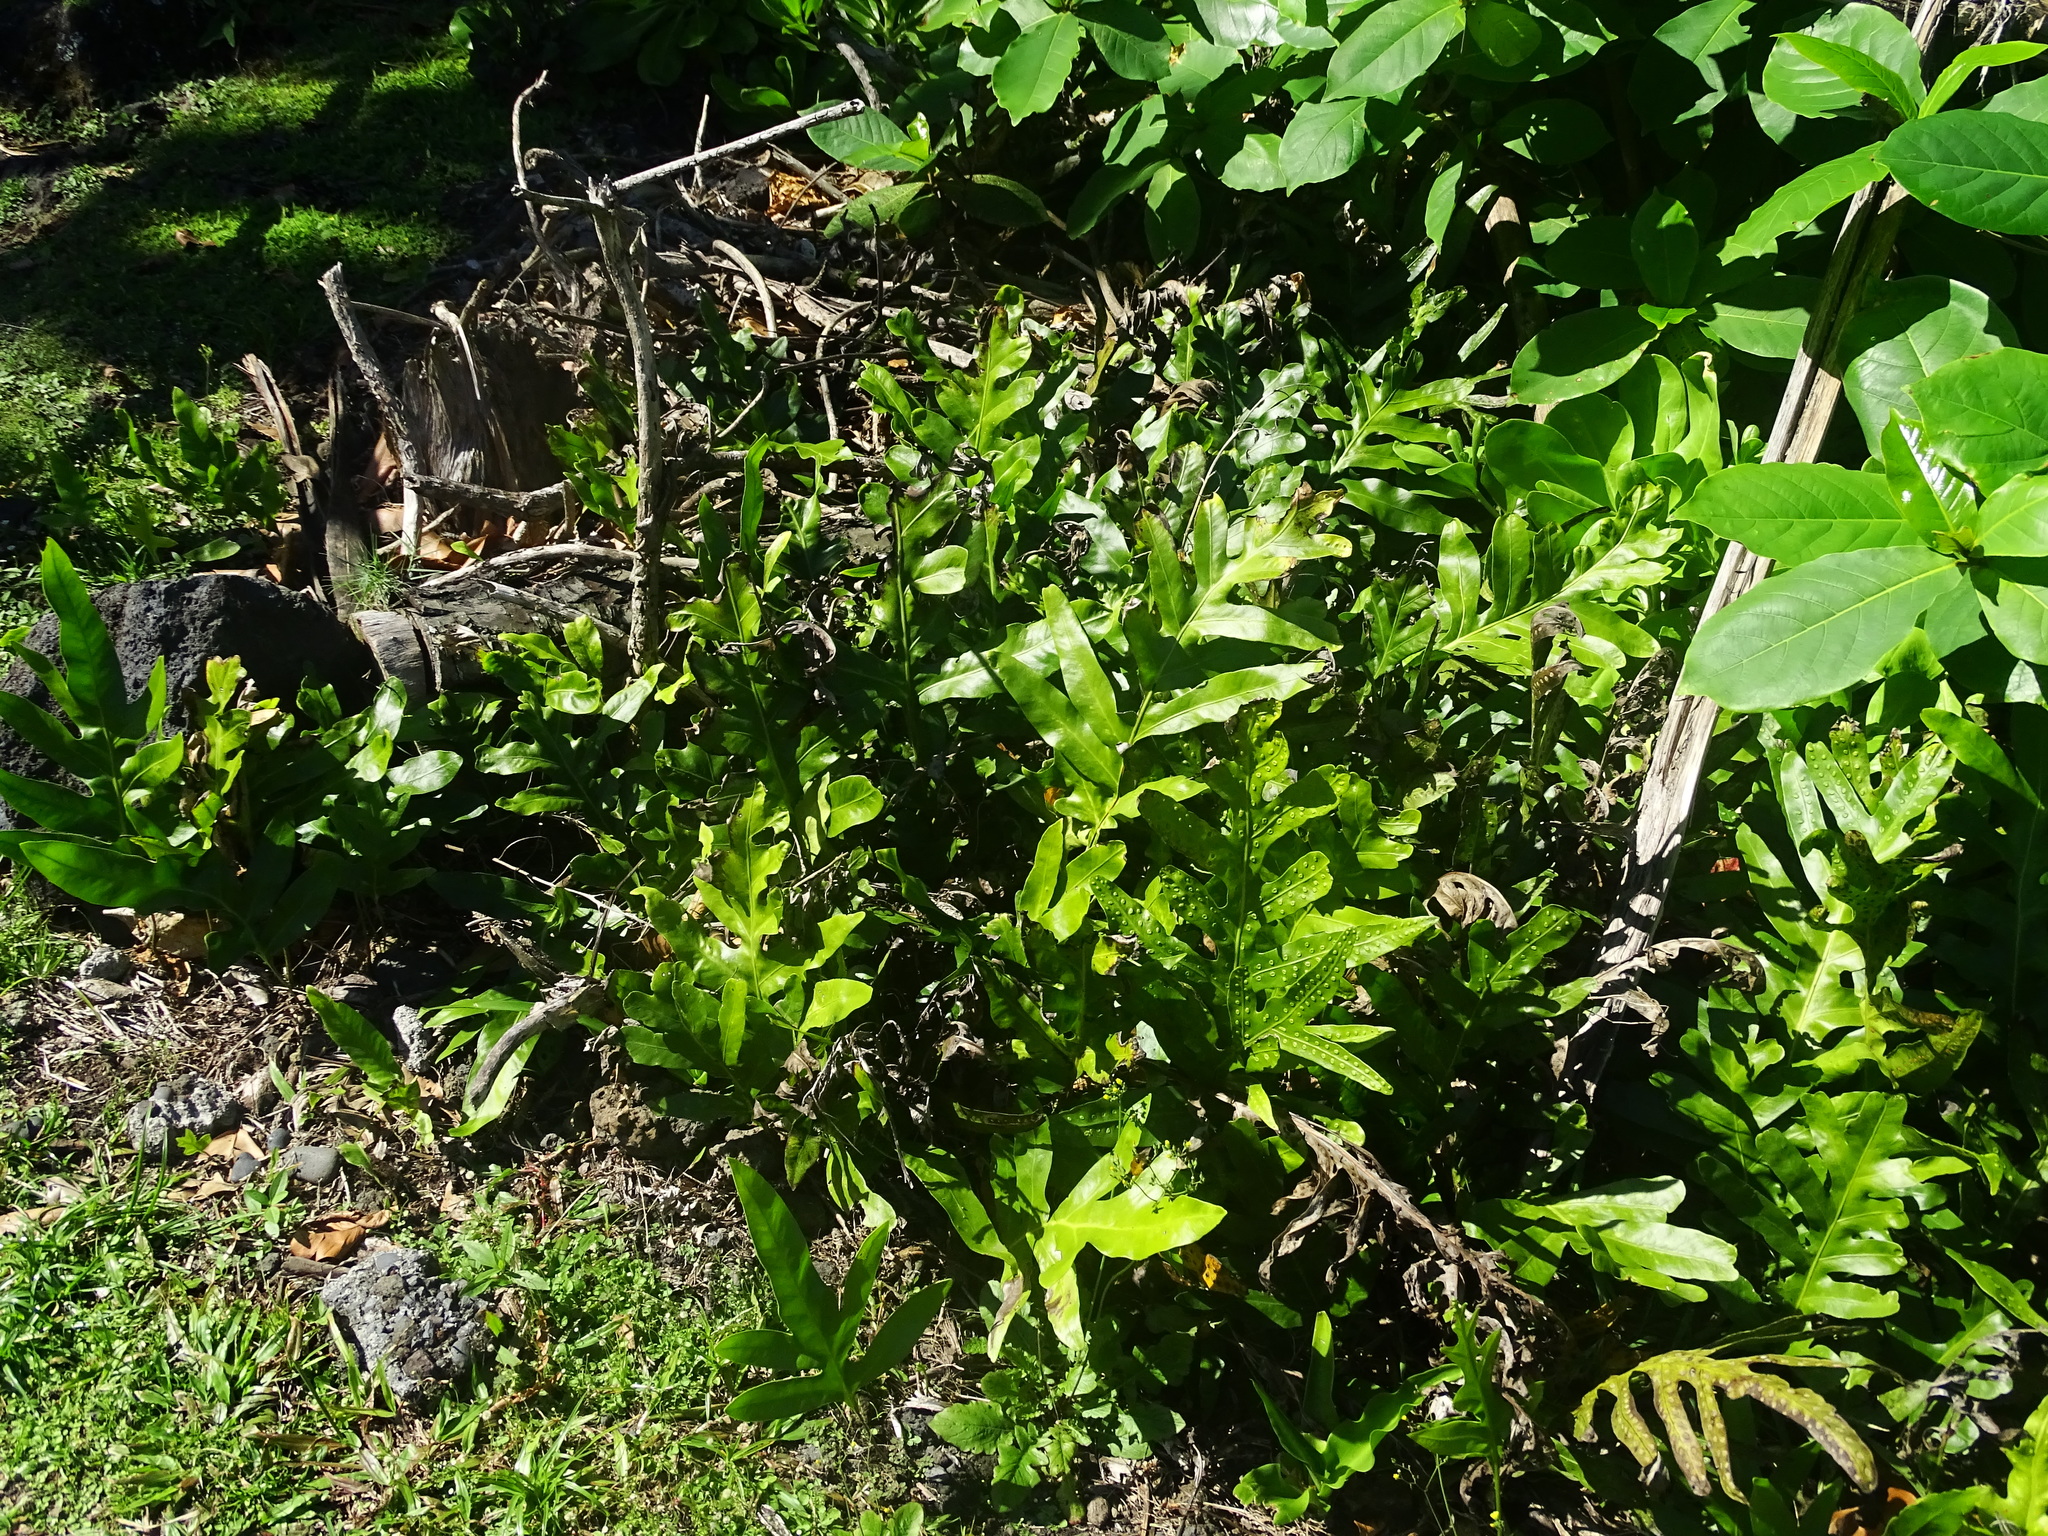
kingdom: Plantae
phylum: Tracheophyta
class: Polypodiopsida
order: Polypodiales
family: Polypodiaceae
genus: Microsorum
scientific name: Microsorum grossum
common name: Musk fern
